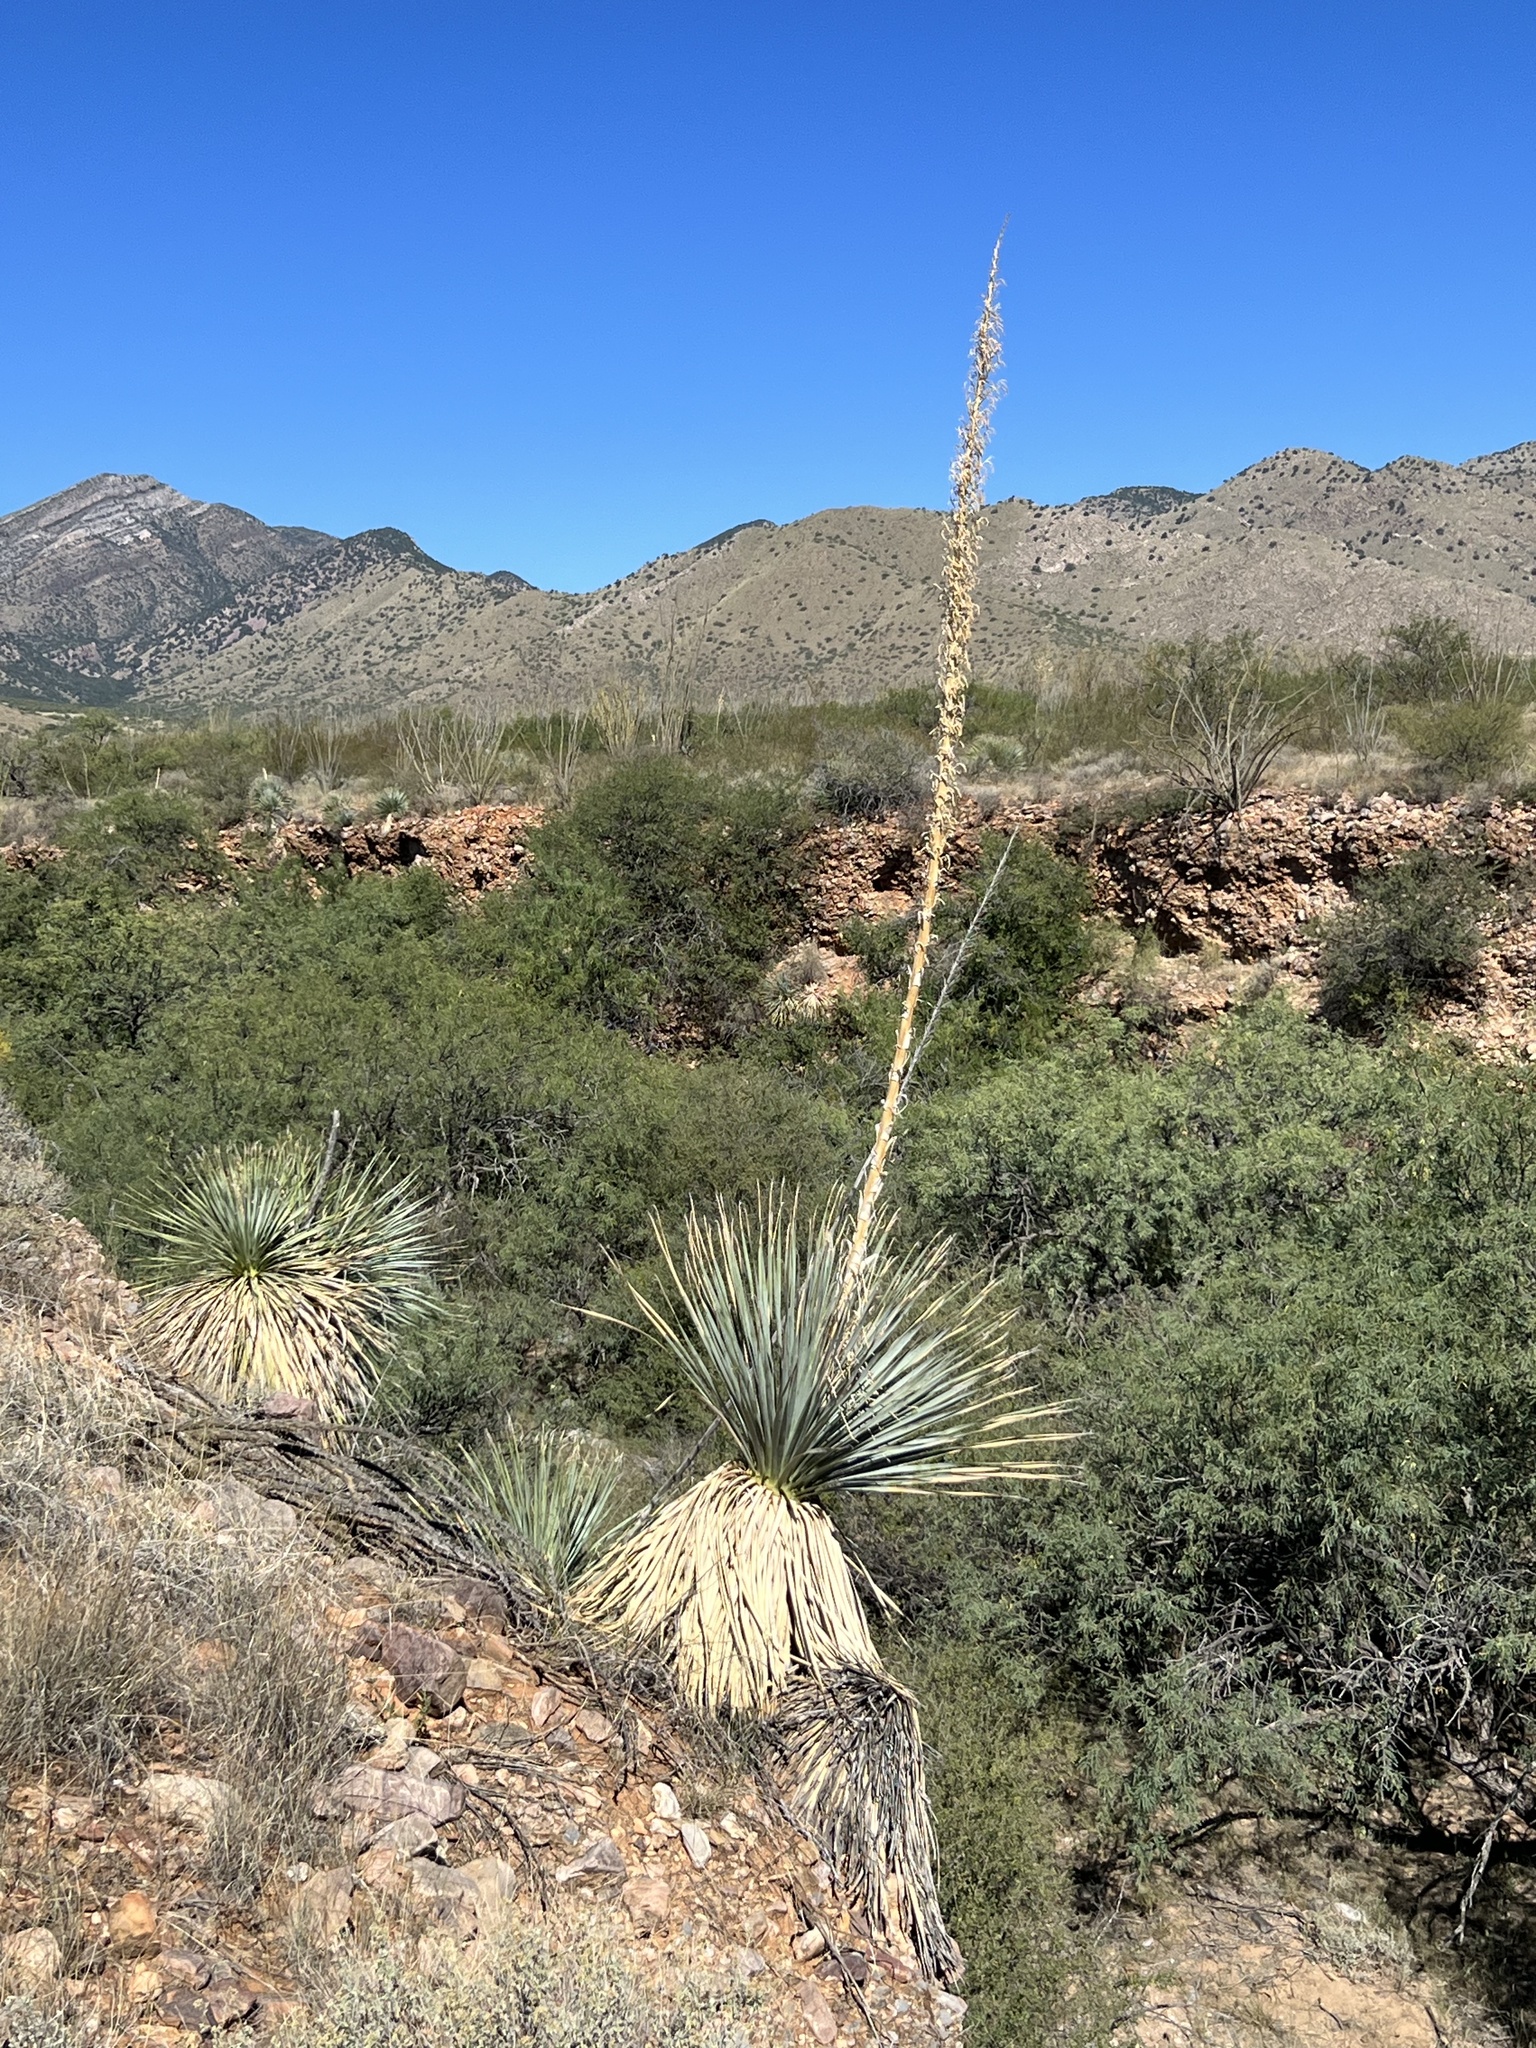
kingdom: Plantae
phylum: Tracheophyta
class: Liliopsida
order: Asparagales
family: Asparagaceae
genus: Dasylirion
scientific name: Dasylirion wheeleri
